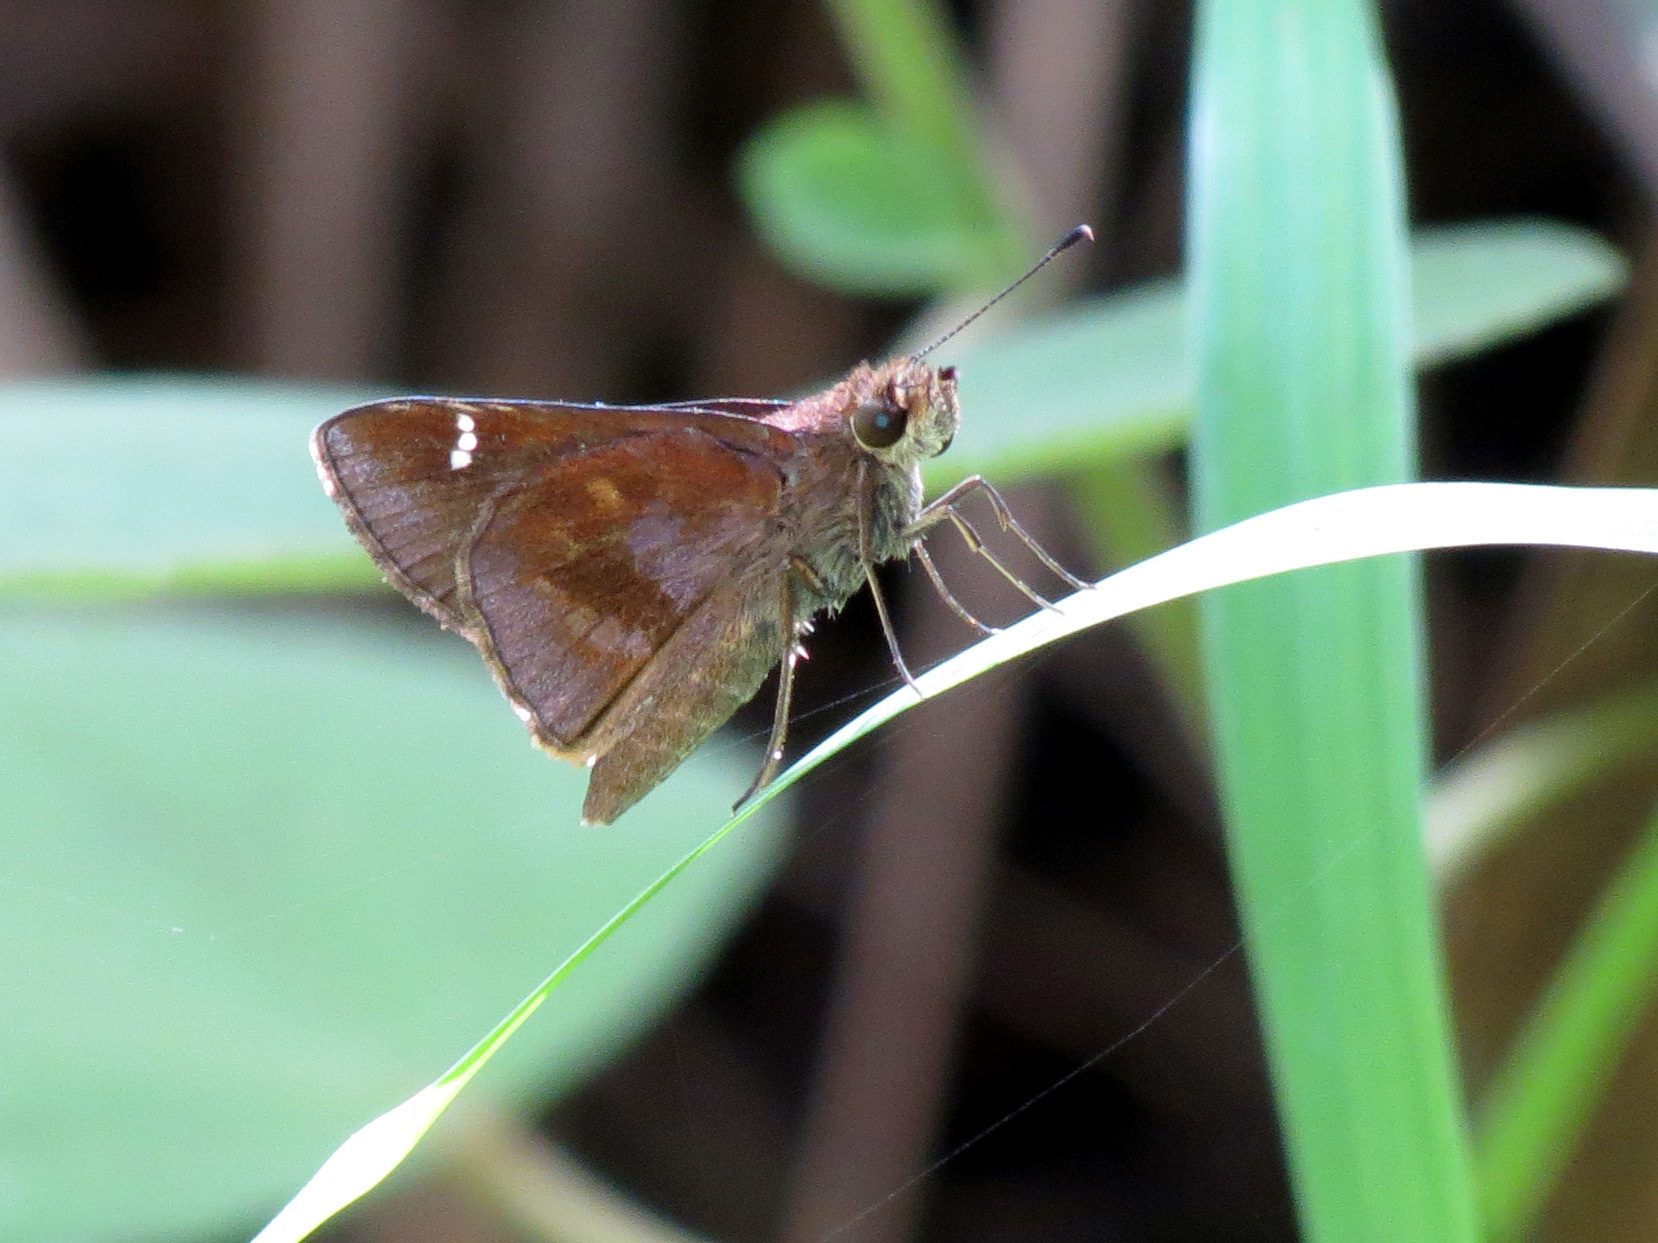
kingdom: Animalia
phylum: Arthropoda
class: Insecta
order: Lepidoptera
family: Hesperiidae
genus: Lerema
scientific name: Lerema accius
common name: Clouded skipper
